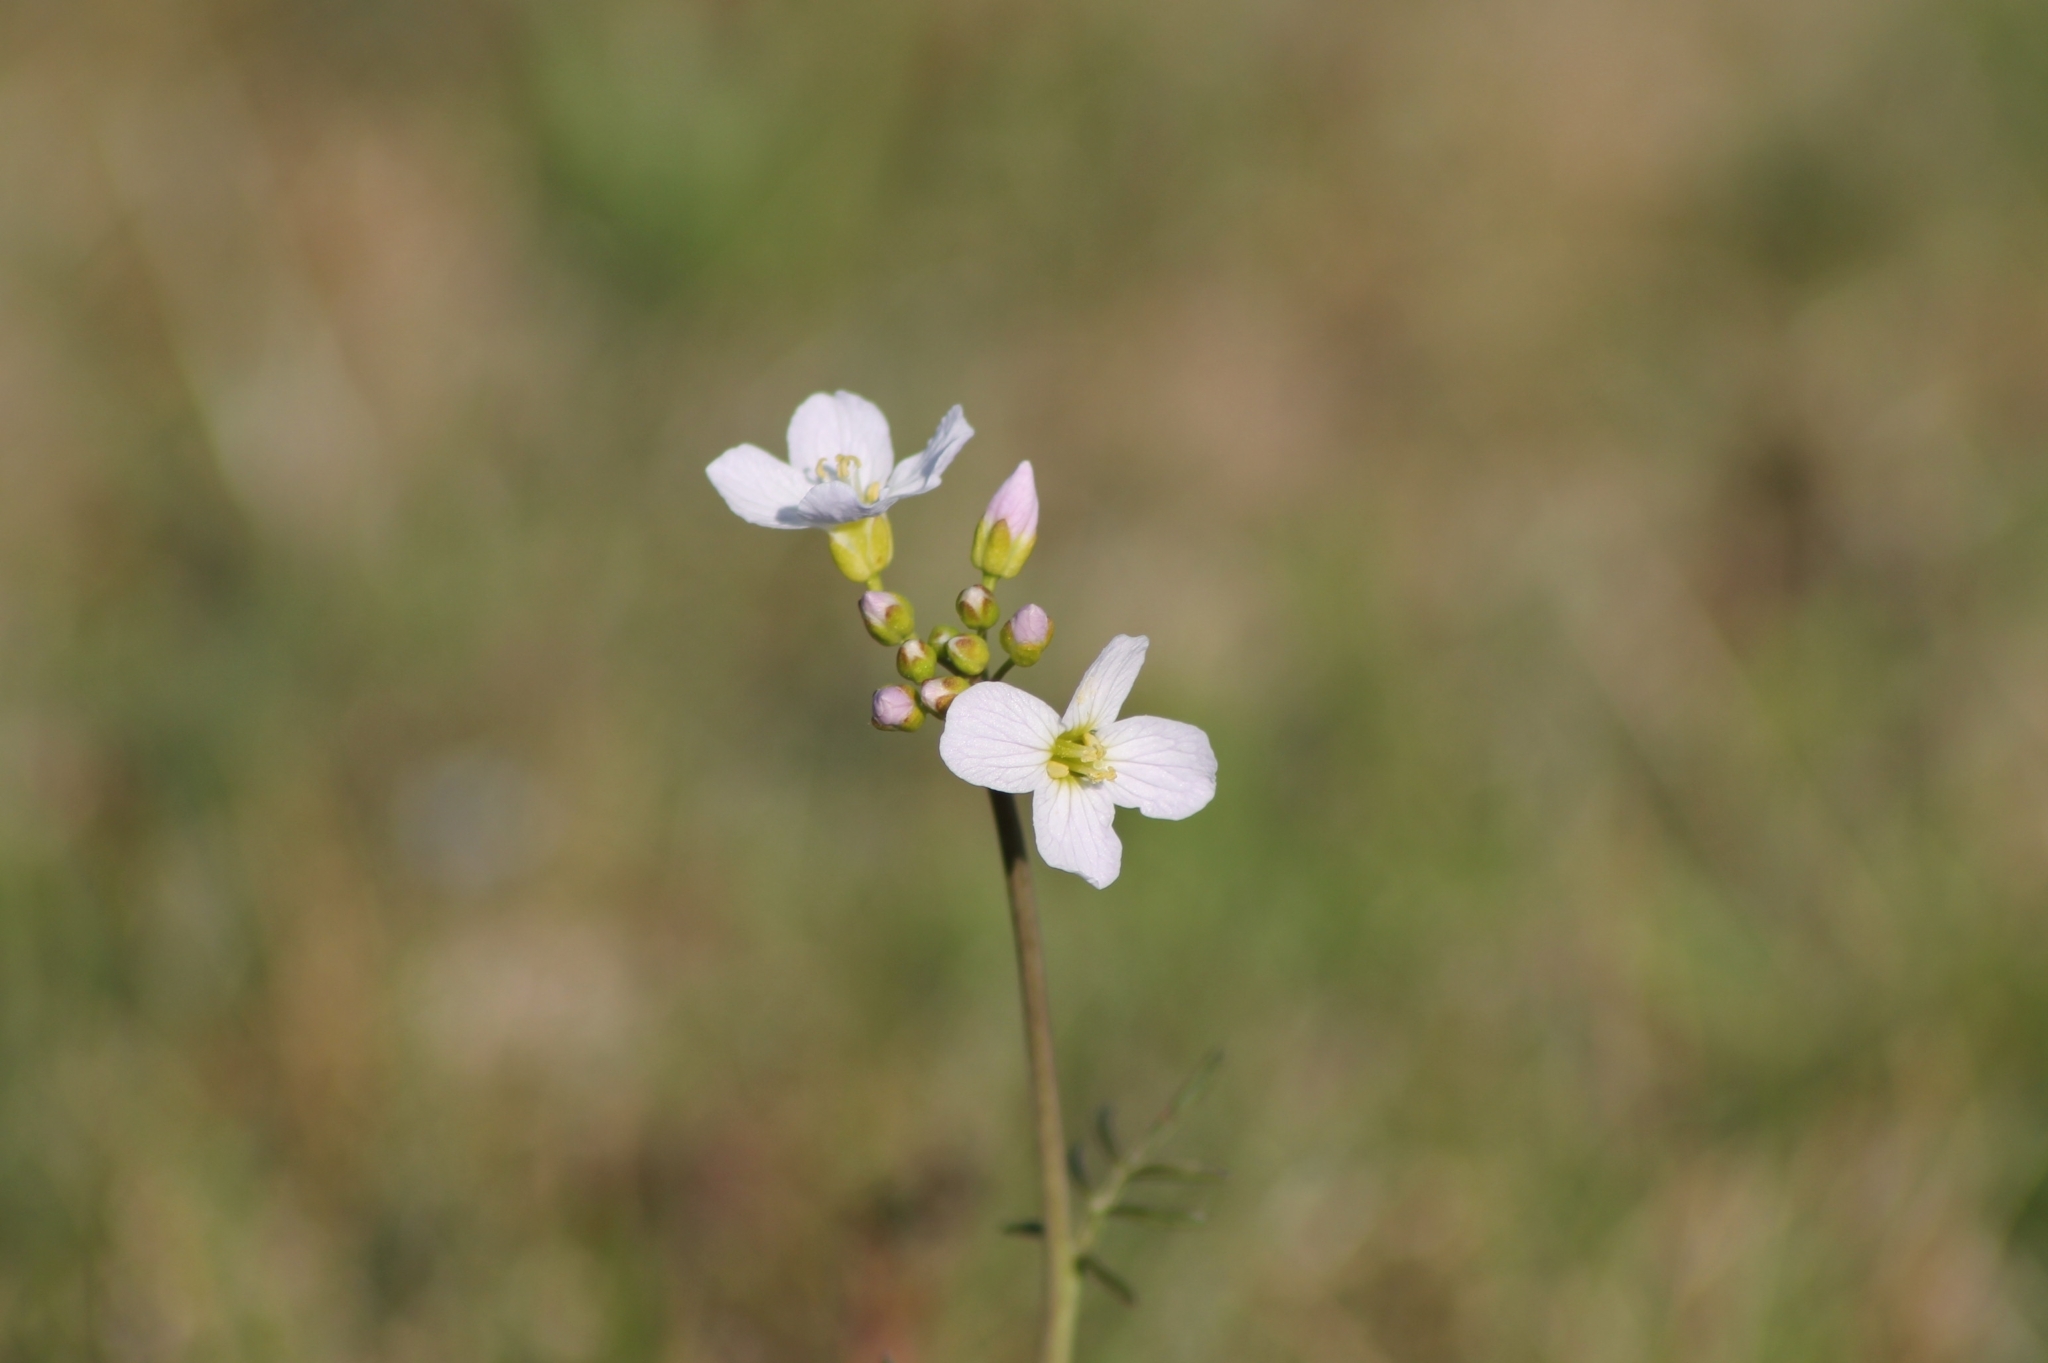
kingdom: Plantae
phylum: Tracheophyta
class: Magnoliopsida
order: Brassicales
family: Brassicaceae
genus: Cardamine
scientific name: Cardamine pratensis
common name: Cuckoo flower
